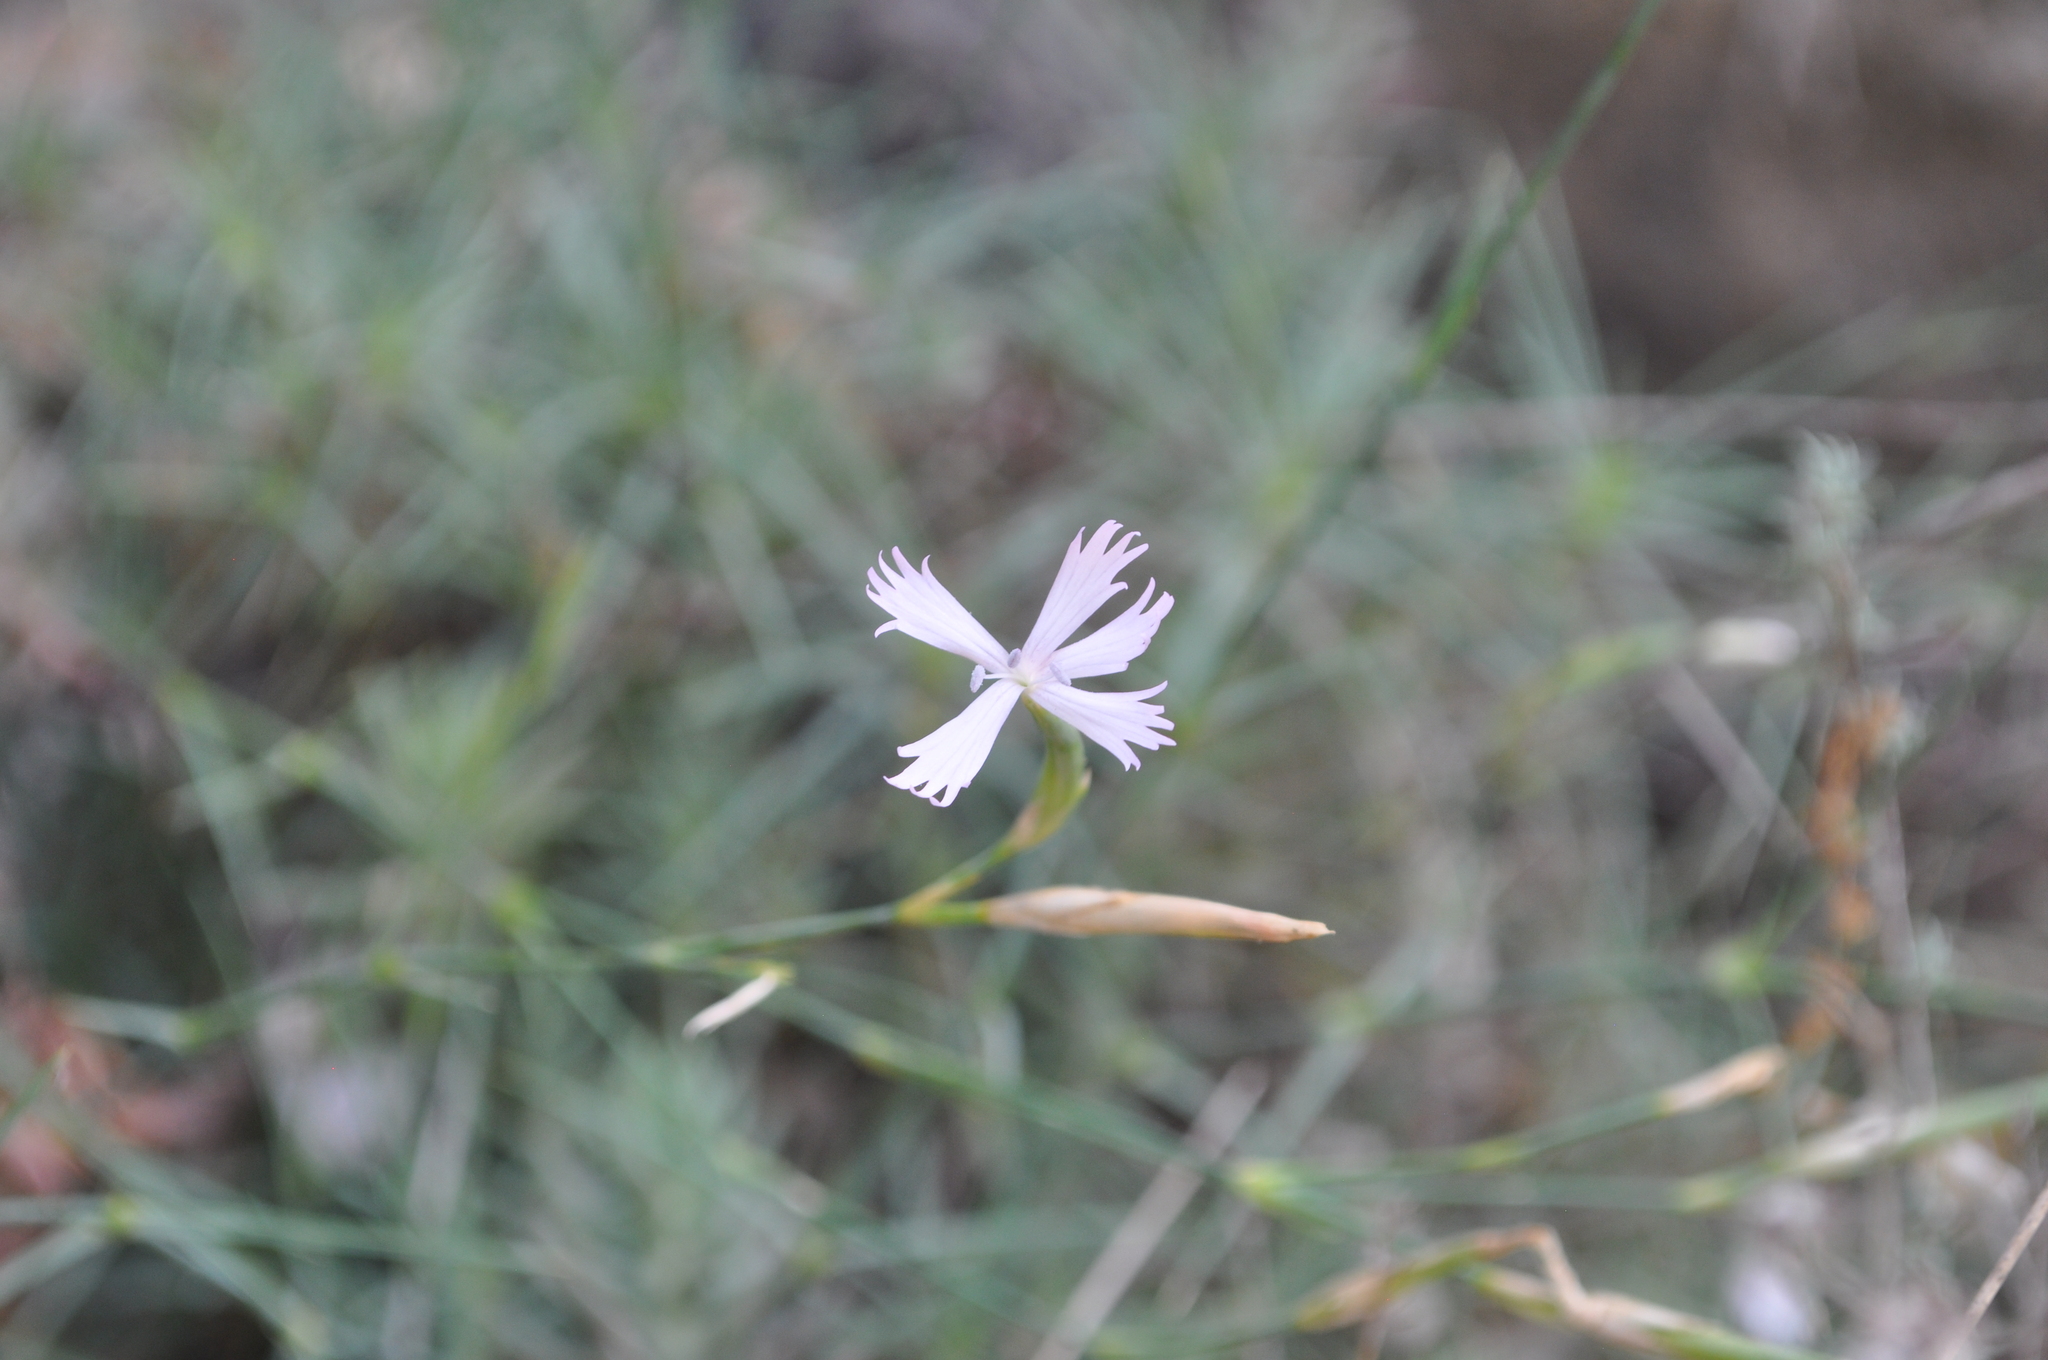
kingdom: Plantae
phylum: Tracheophyta
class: Magnoliopsida
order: Caryophyllales
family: Caryophyllaceae
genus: Dianthus
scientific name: Dianthus pyrenaicus
